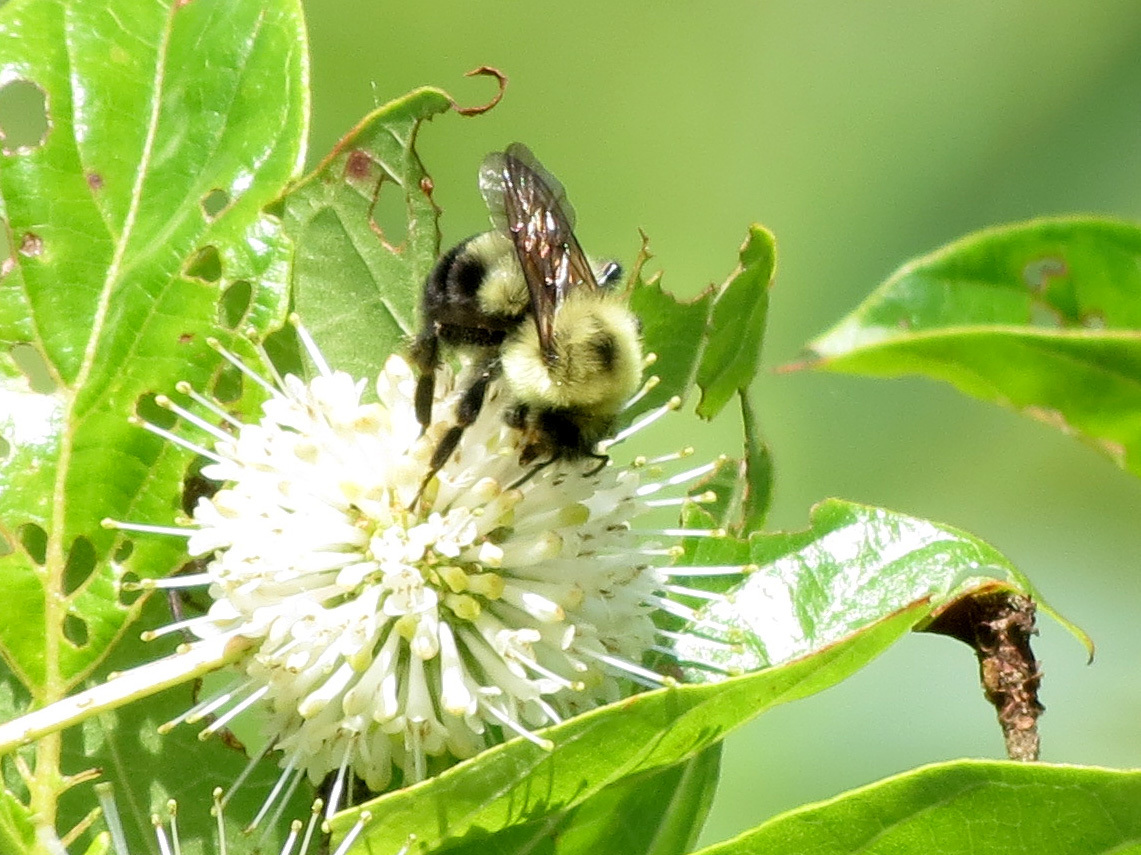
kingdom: Animalia
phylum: Arthropoda
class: Insecta
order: Hymenoptera
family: Apidae
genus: Bombus
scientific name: Bombus bimaculatus
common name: Two-spotted bumble bee
